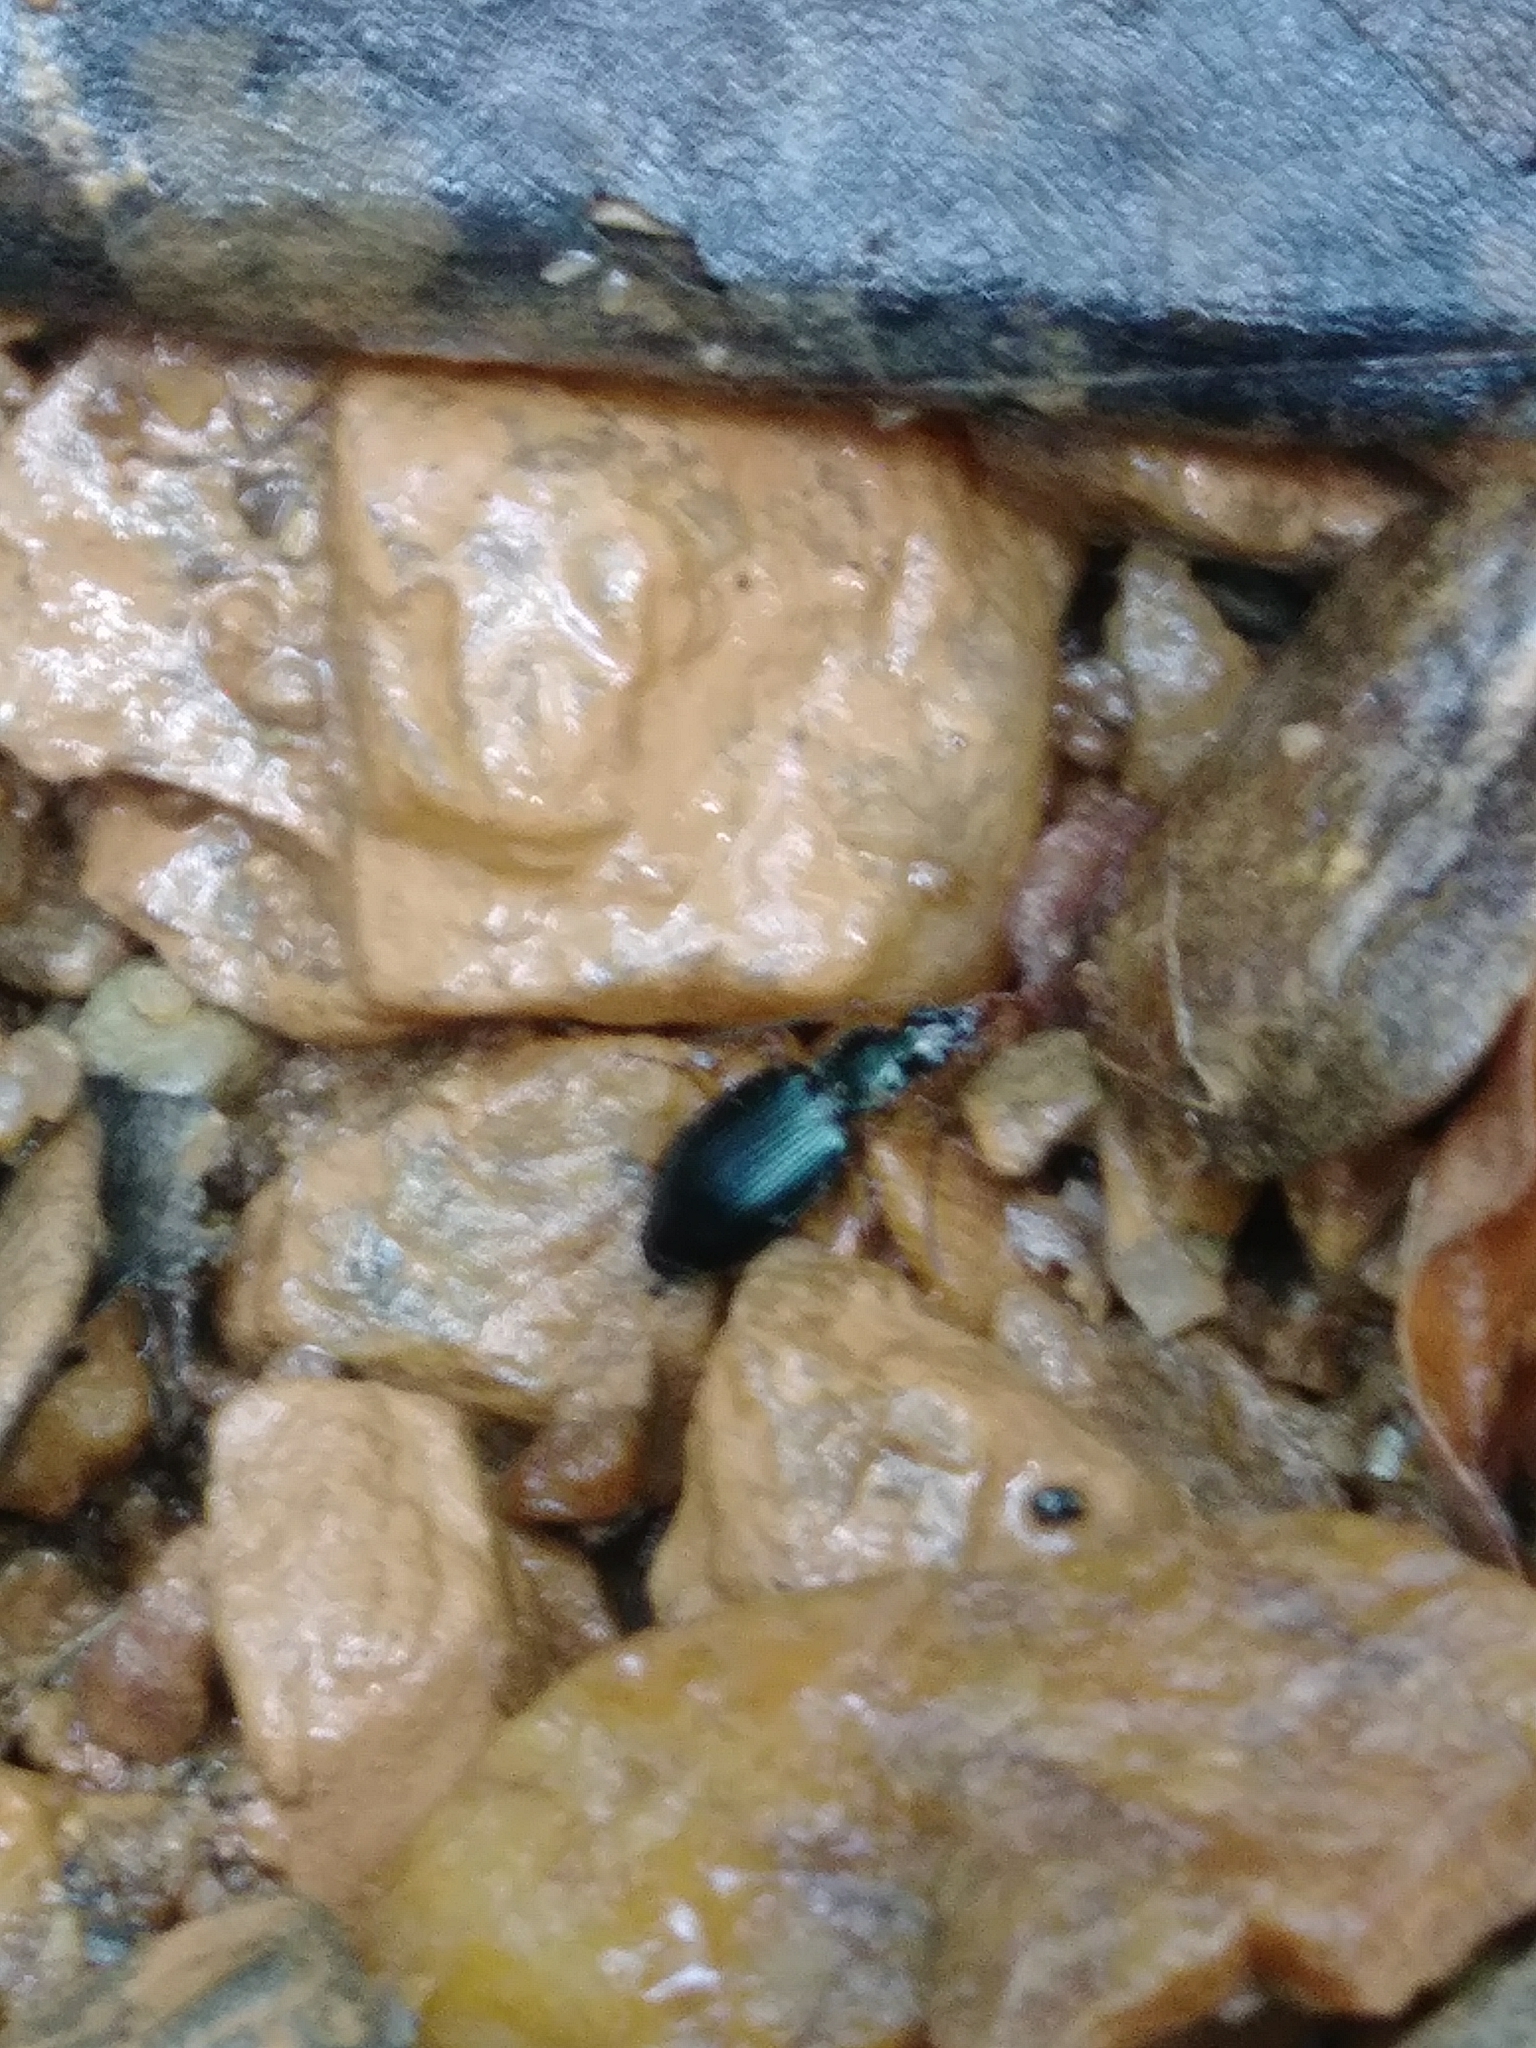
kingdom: Animalia
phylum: Arthropoda
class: Insecta
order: Coleoptera
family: Carabidae
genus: Agonum
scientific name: Agonum extensicolle
